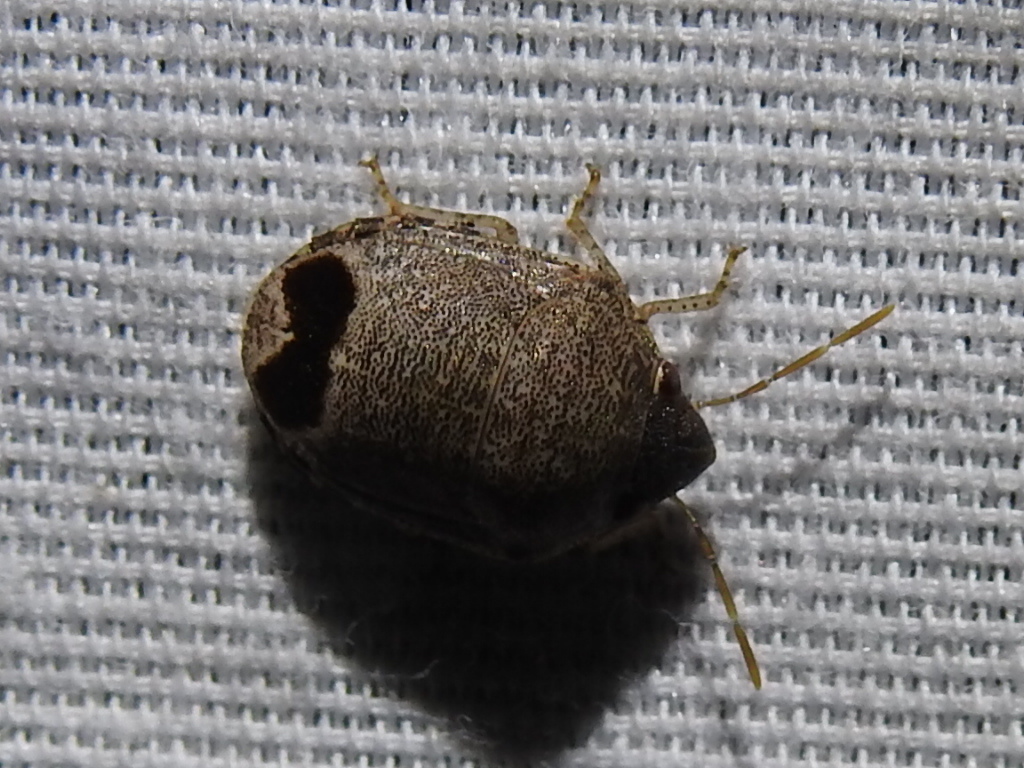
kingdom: Animalia
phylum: Arthropoda
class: Insecta
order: Hemiptera
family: Scutelleridae
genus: Symphylus
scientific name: Symphylus caribbeanus
